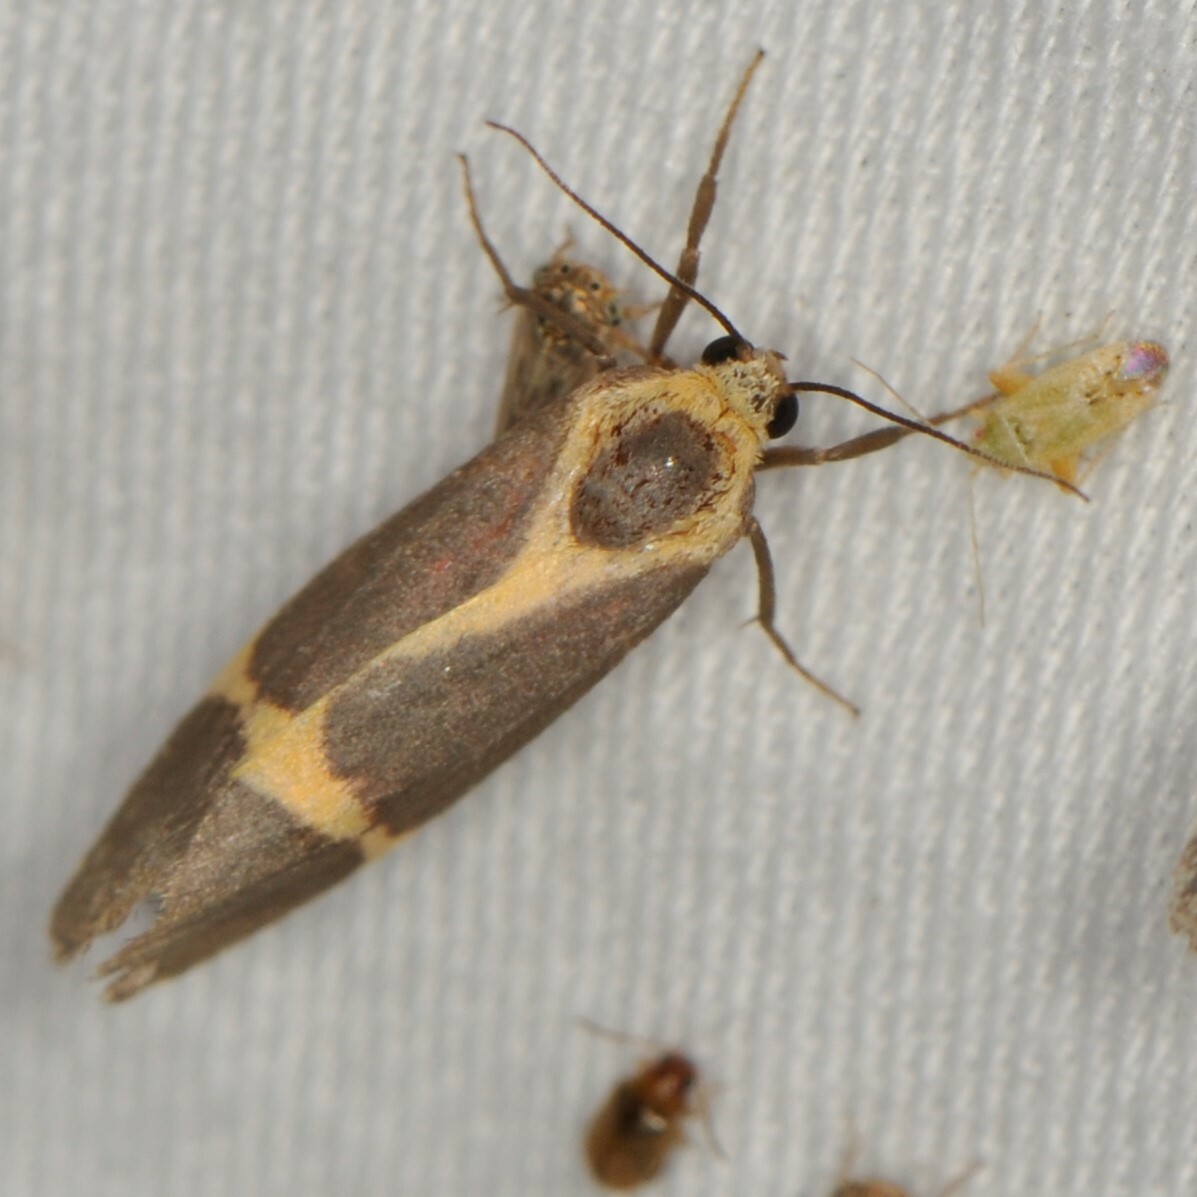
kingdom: Animalia
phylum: Arthropoda
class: Insecta
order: Lepidoptera
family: Erebidae
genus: Cisthene
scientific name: Cisthene
